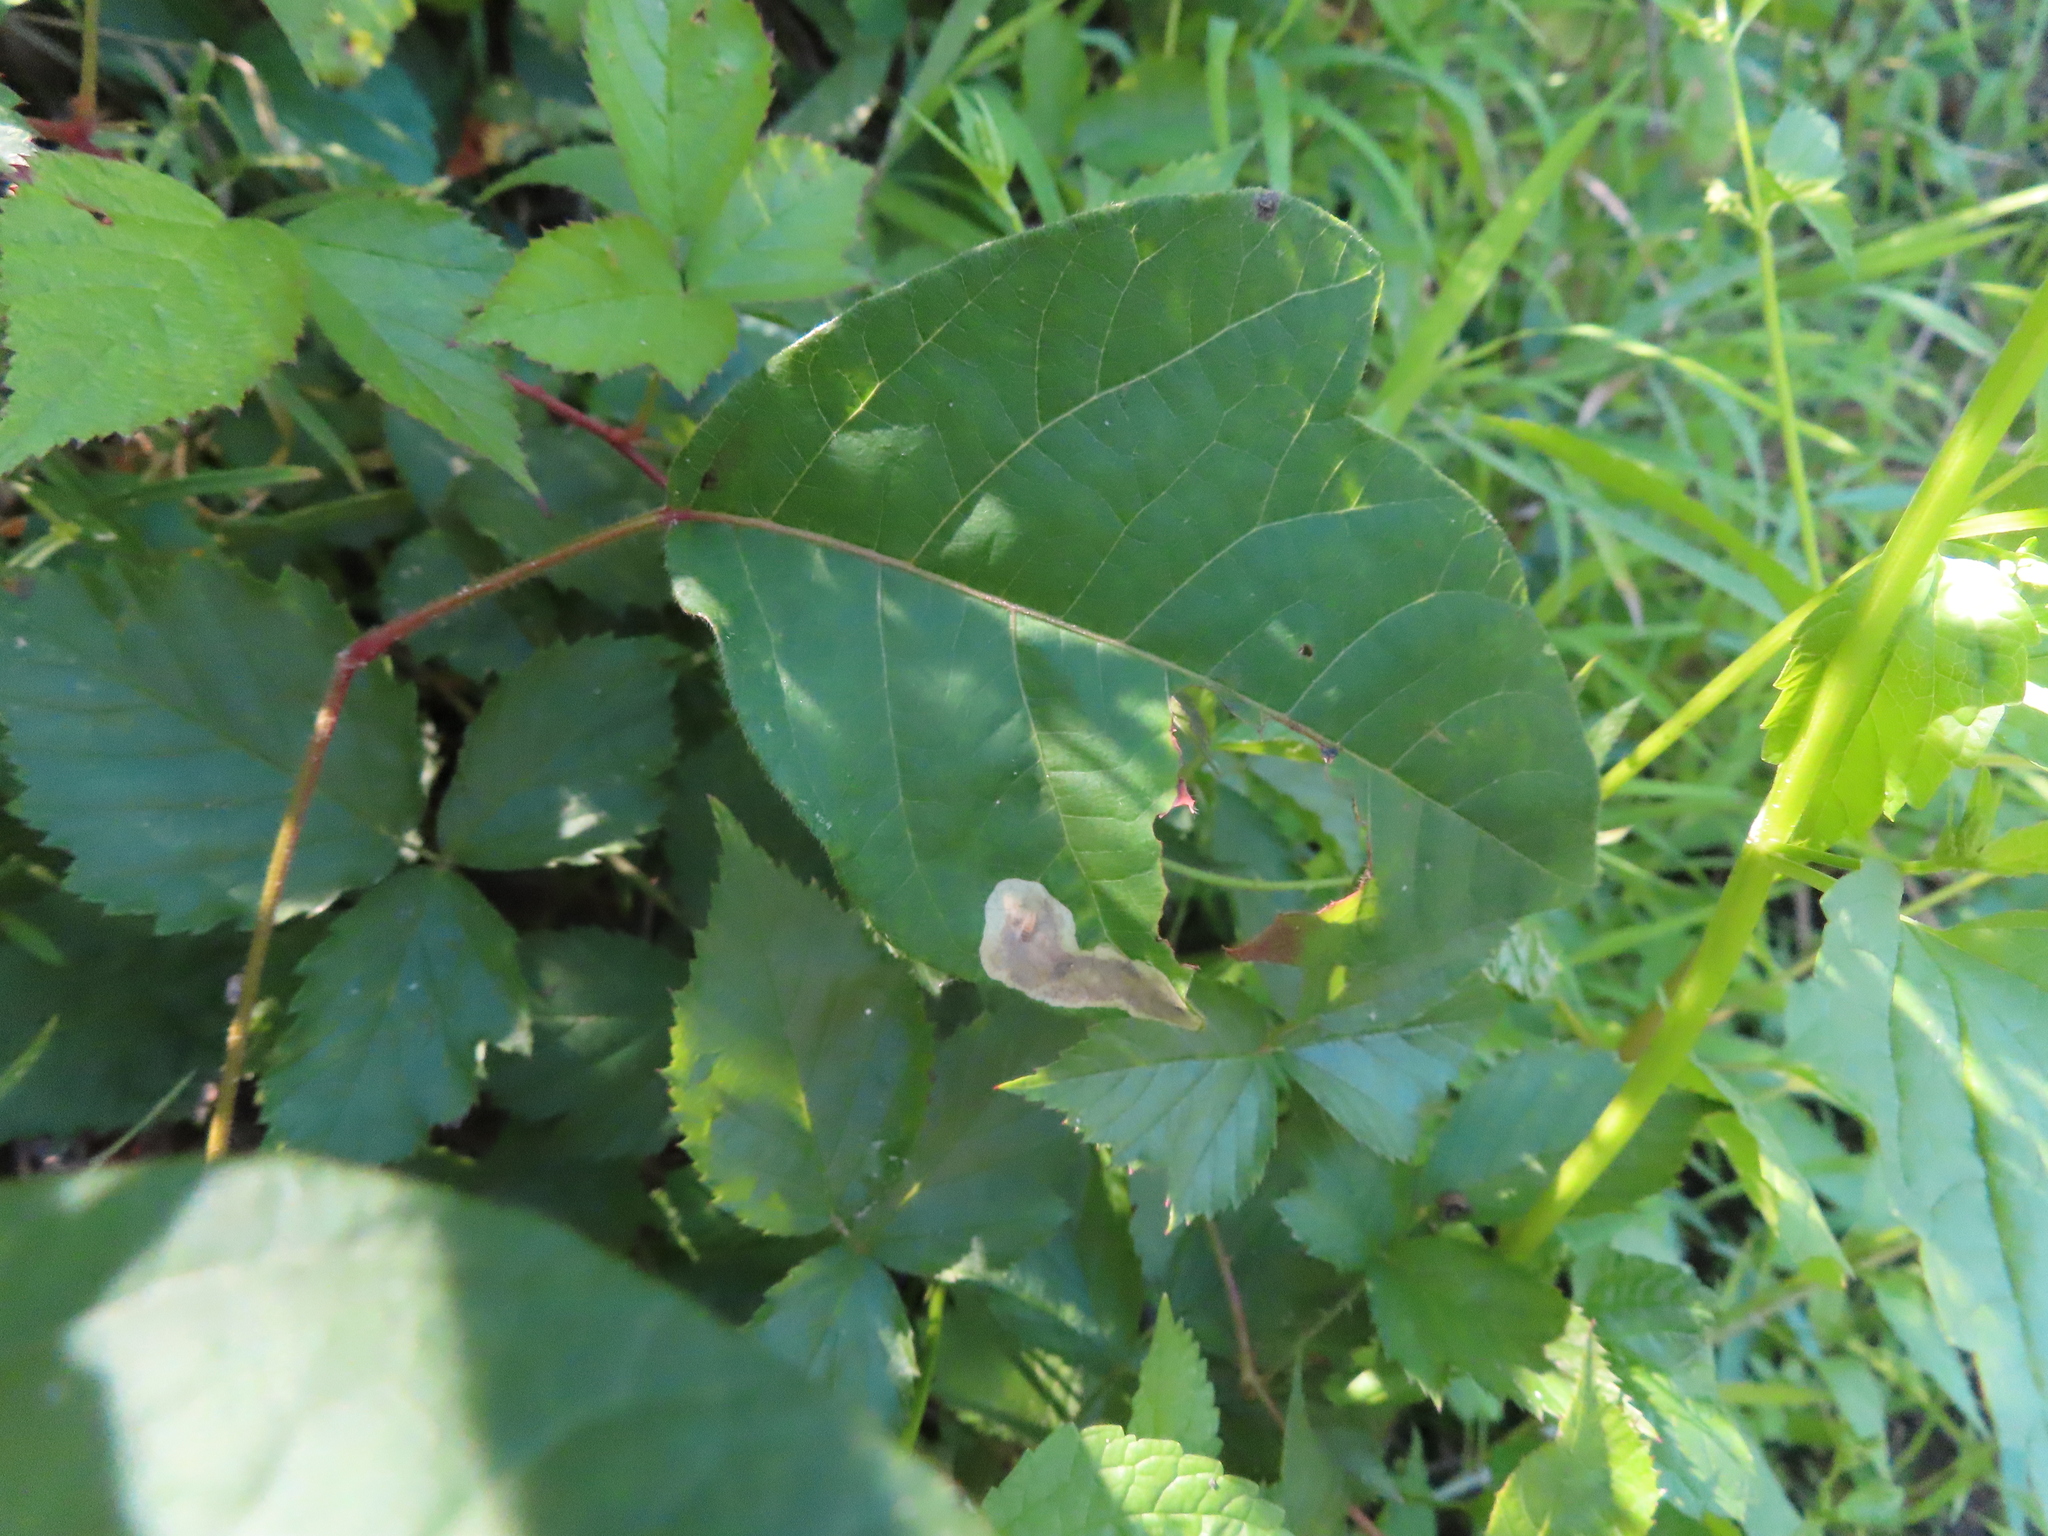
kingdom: Animalia
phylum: Arthropoda
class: Insecta
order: Lepidoptera
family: Gracillariidae
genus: Cameraria
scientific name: Cameraria guttifinitella
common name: Poison ivy leaf-miner moth
